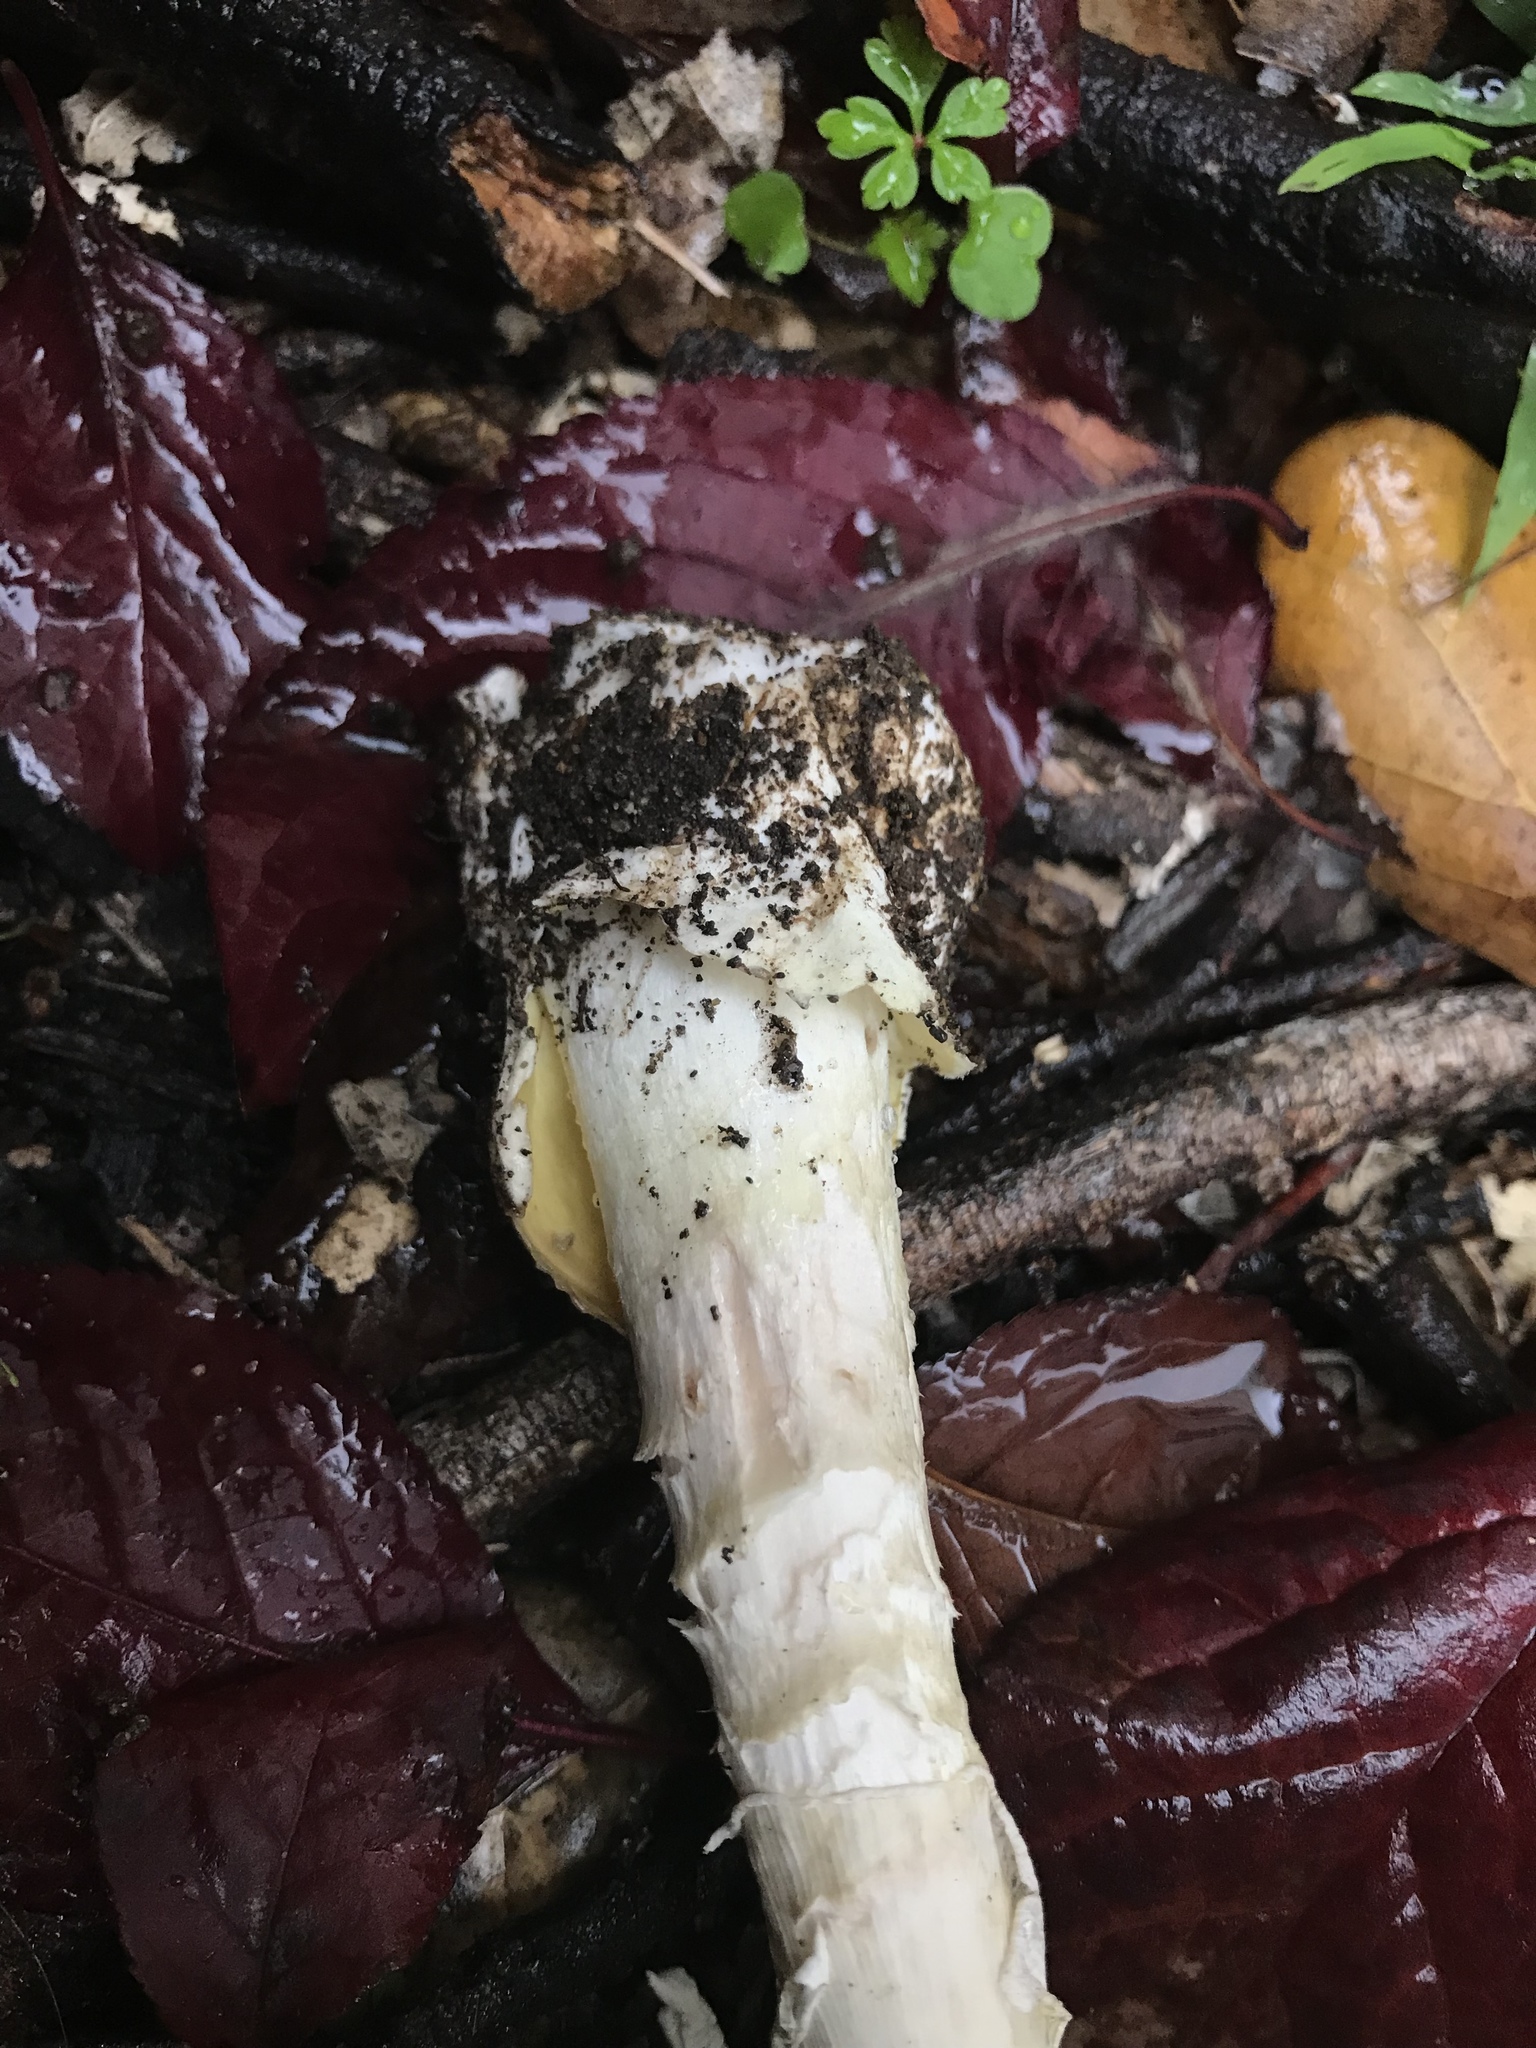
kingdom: Fungi
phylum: Basidiomycota
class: Agaricomycetes
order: Agaricales
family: Amanitaceae
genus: Amanita
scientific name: Amanita phalloides
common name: Death cap
